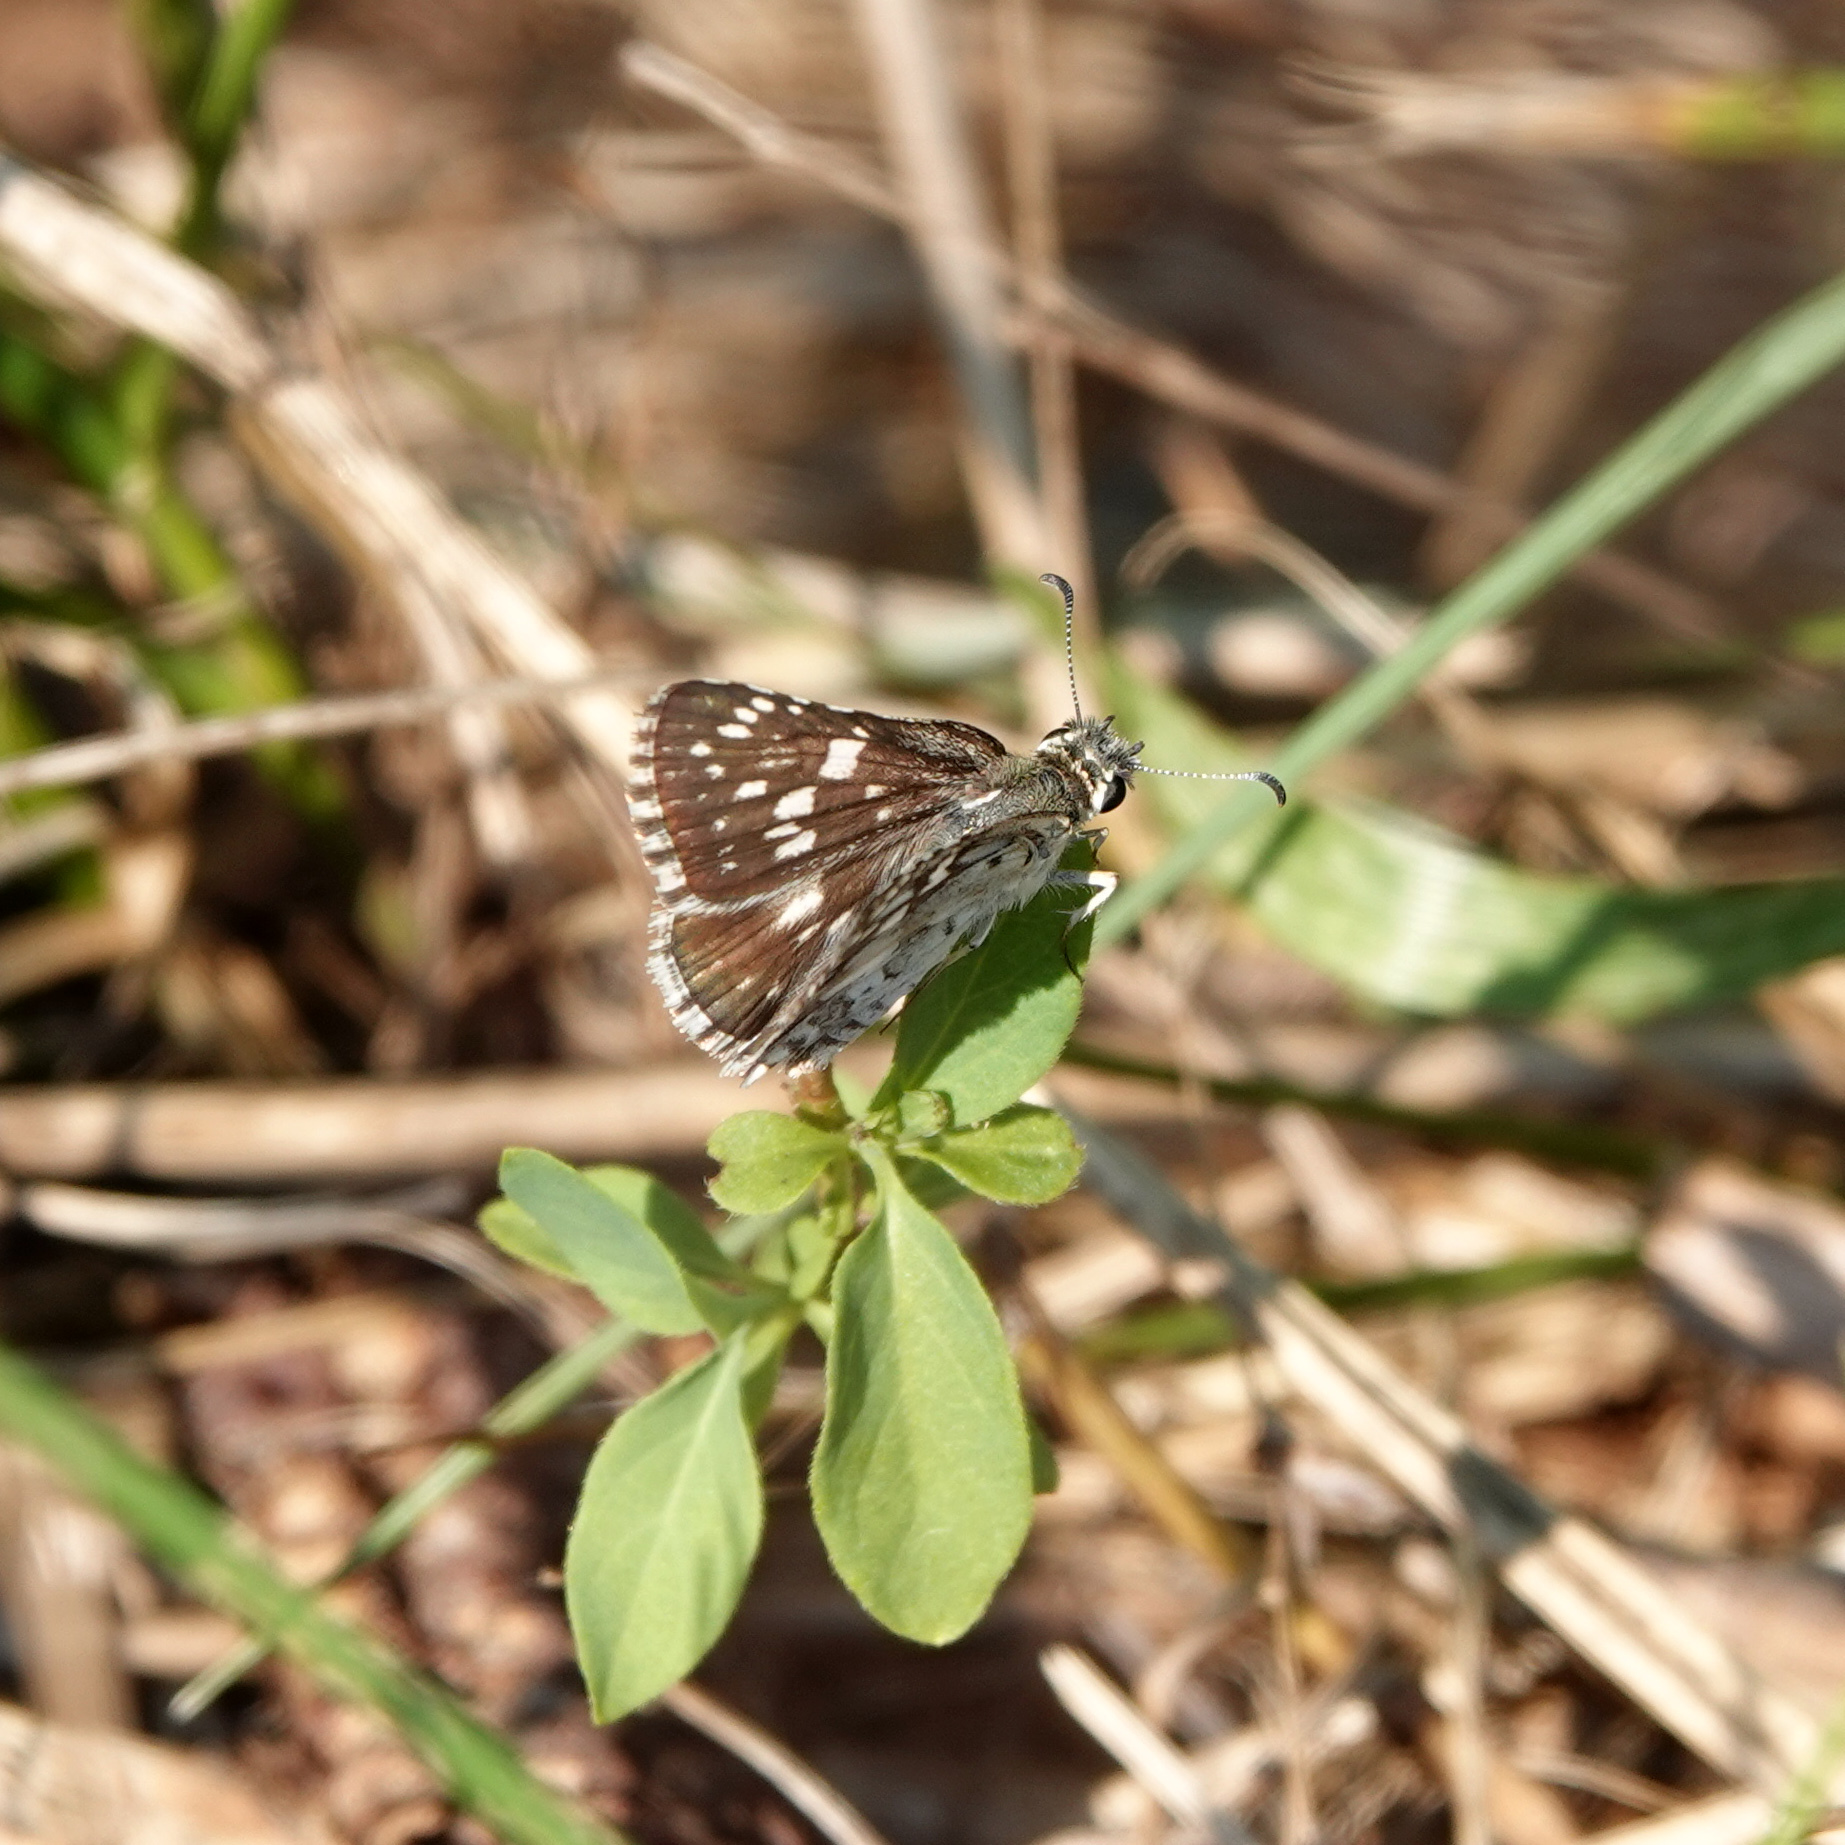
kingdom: Animalia
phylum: Arthropoda
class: Insecta
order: Lepidoptera
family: Hesperiidae
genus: Burnsius
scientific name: Burnsius communis
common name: Common checkered-skipper
